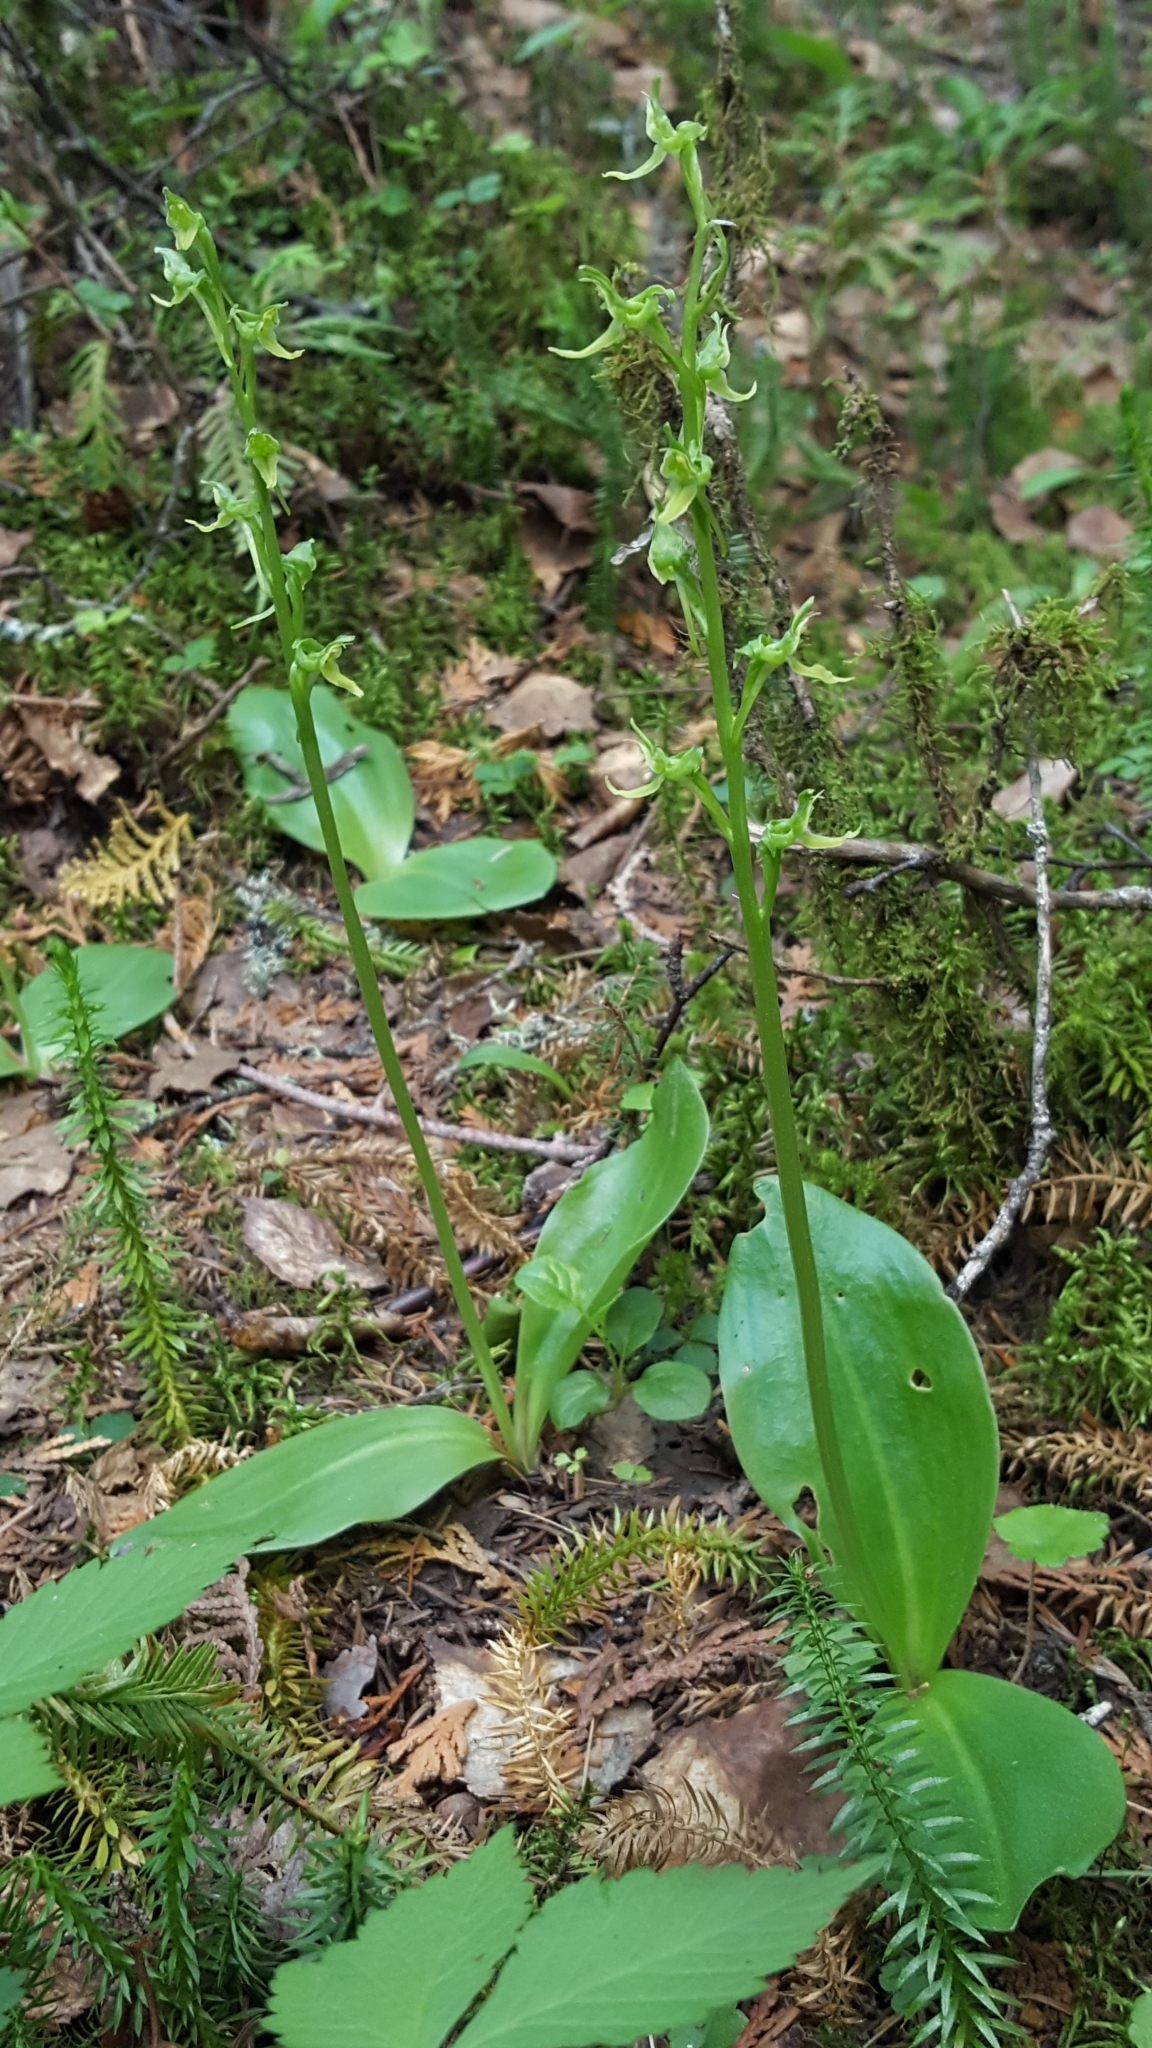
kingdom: Plantae
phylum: Tracheophyta
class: Liliopsida
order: Asparagales
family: Orchidaceae
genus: Platanthera
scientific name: Platanthera hookeri
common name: Hooker's orchid
